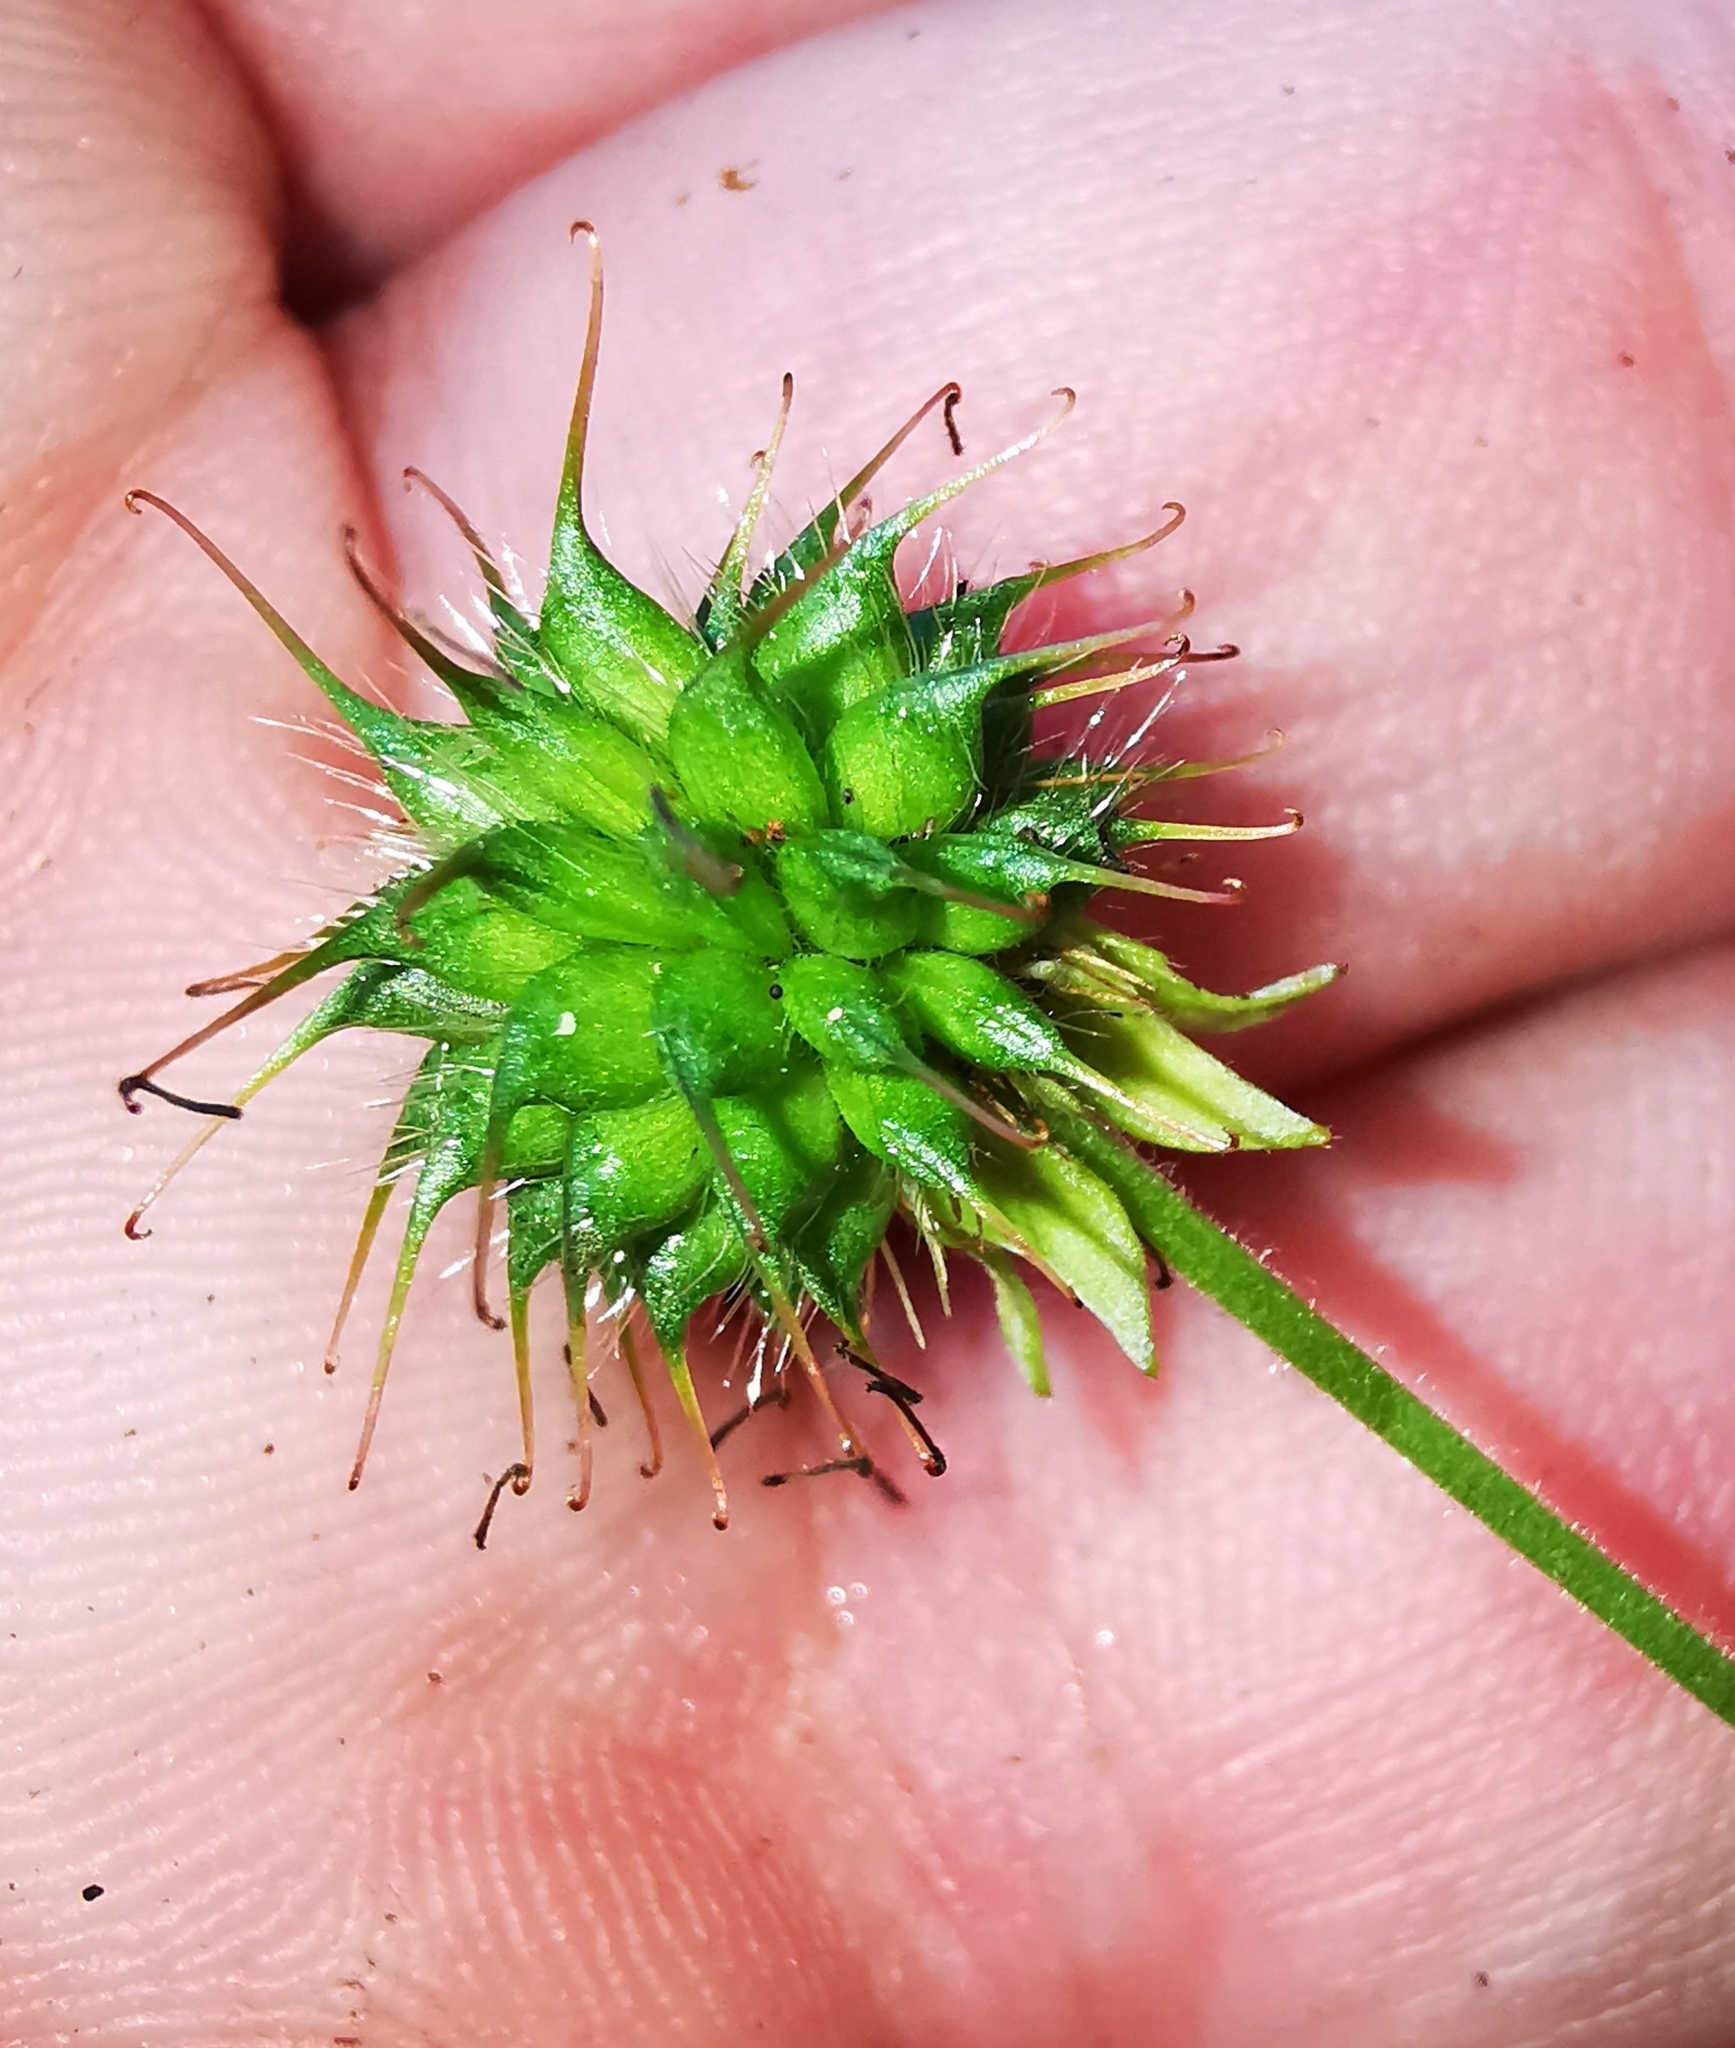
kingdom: Plantae
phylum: Tracheophyta
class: Magnoliopsida
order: Rosales
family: Rosaceae
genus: Geum
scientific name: Geum urbanum
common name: Wood avens
